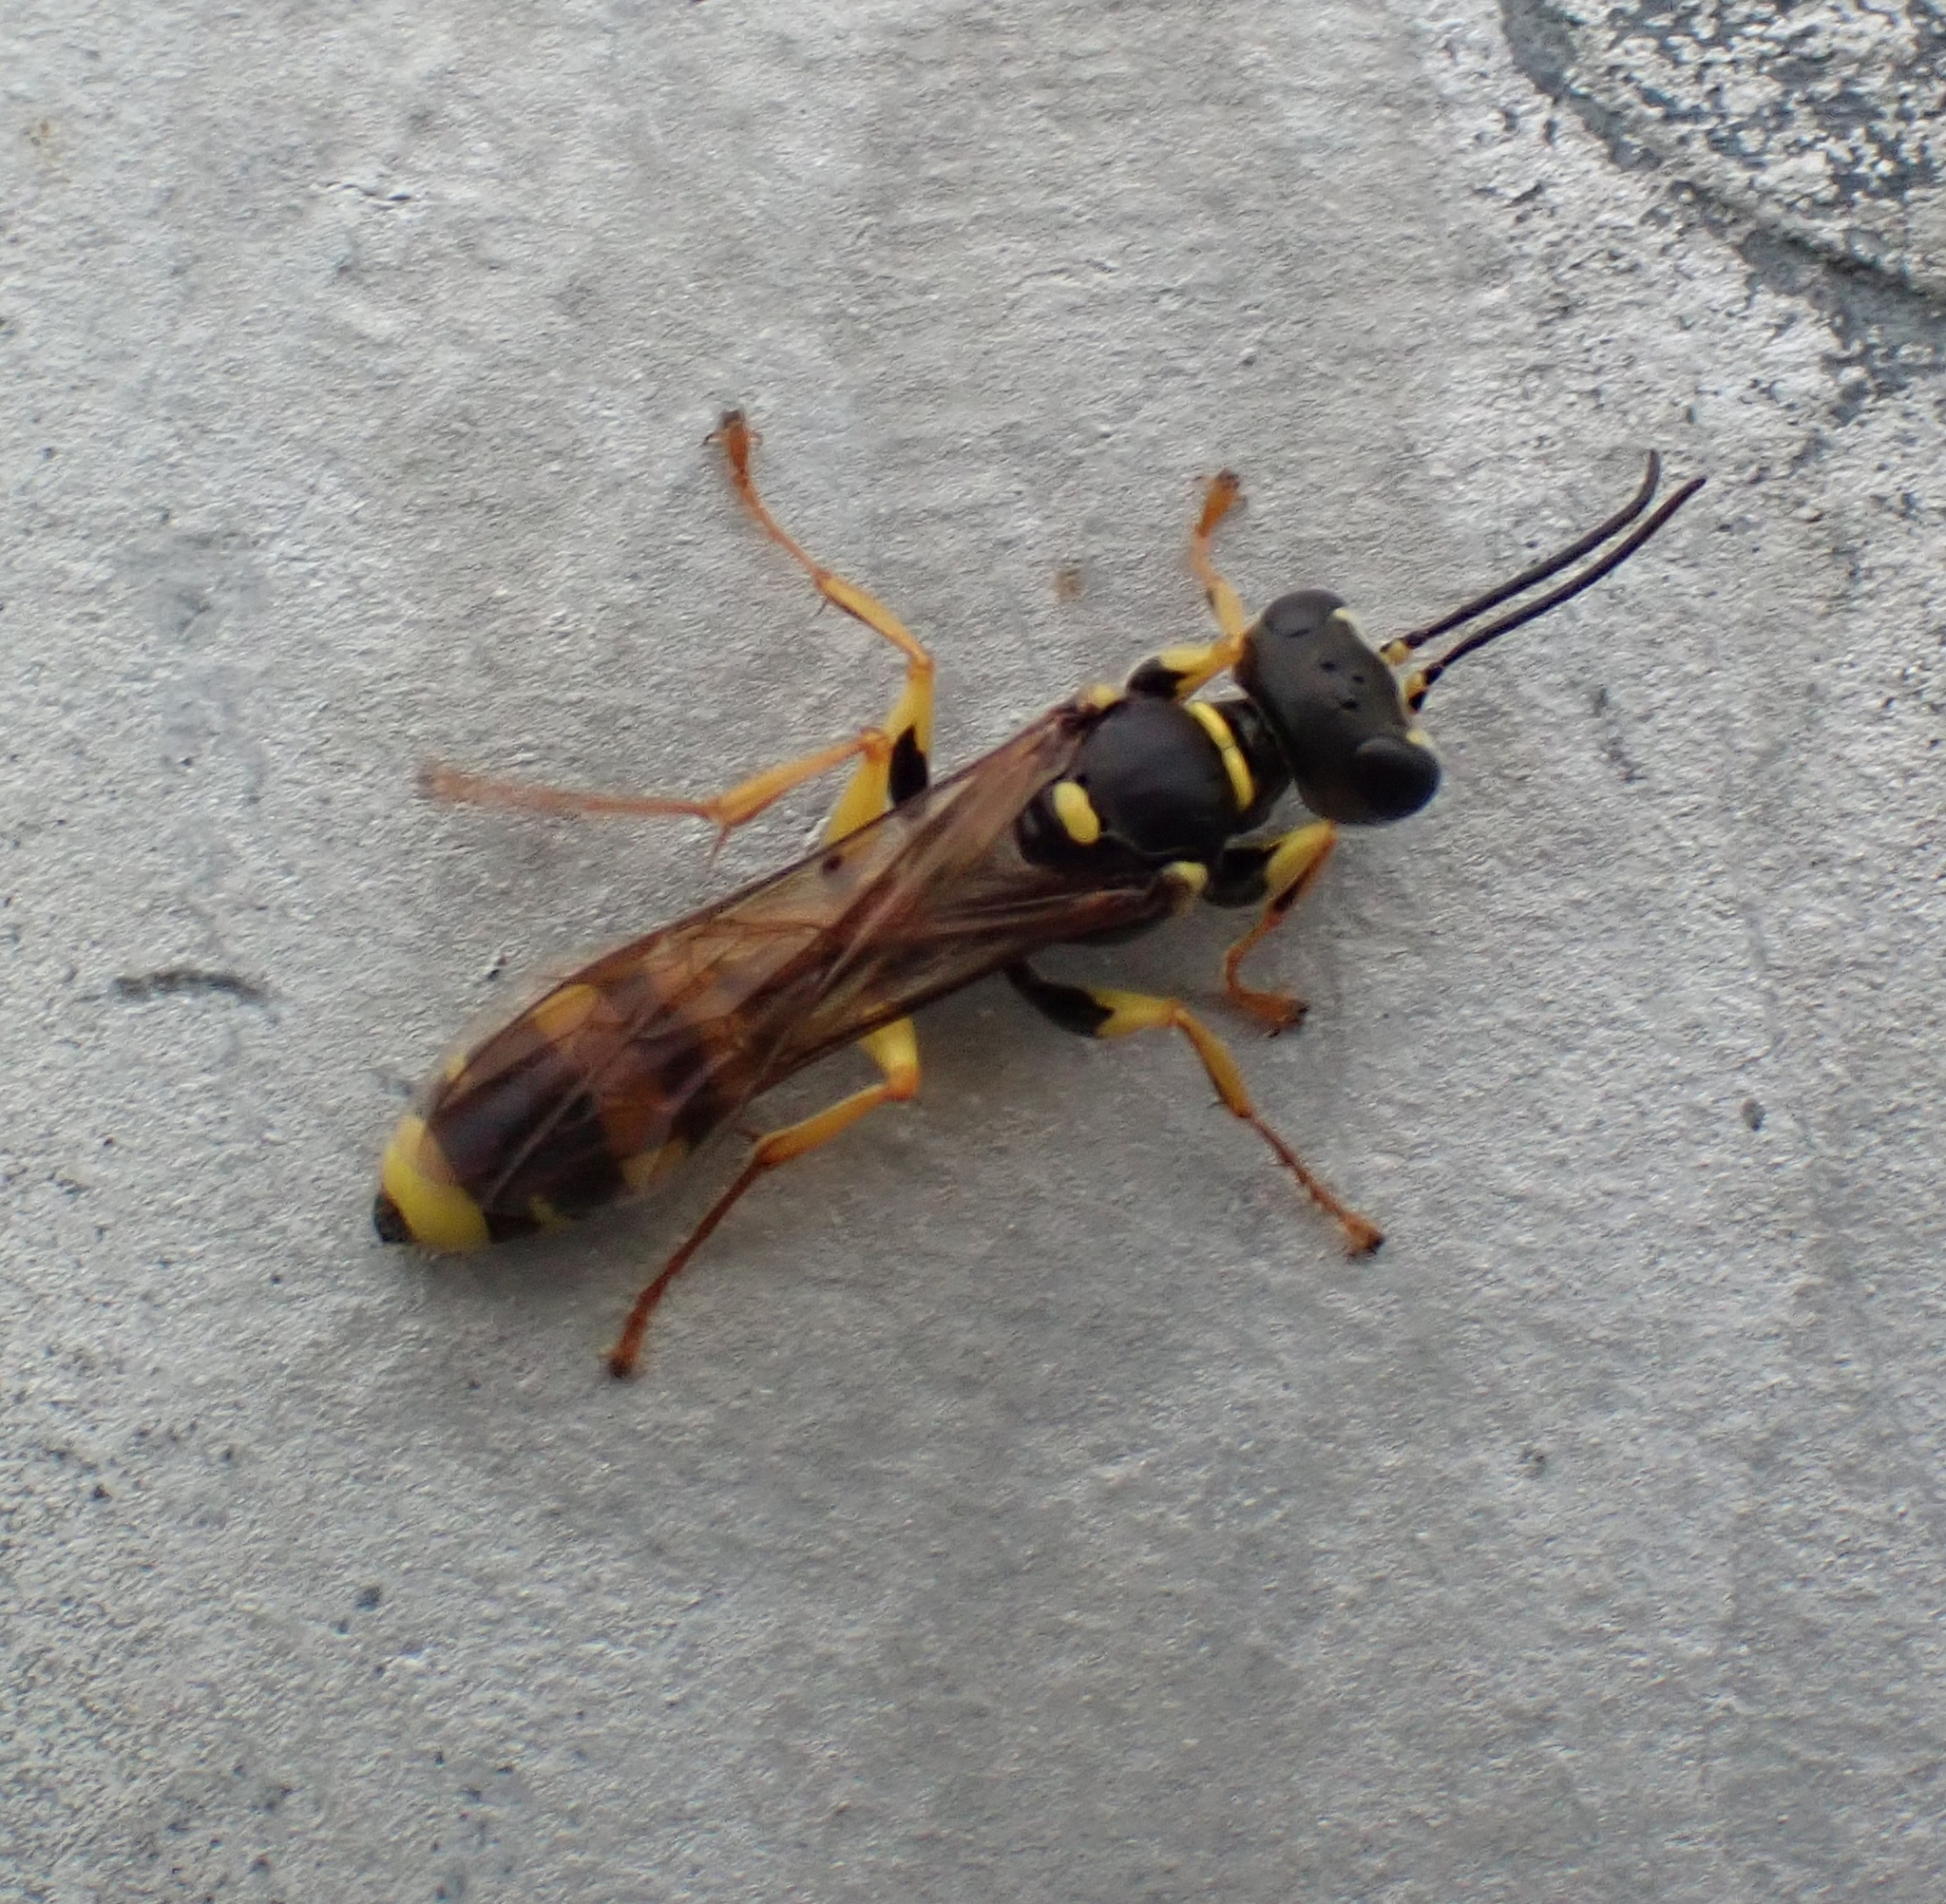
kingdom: Animalia
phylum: Arthropoda
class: Insecta
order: Hymenoptera
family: Crabronidae
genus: Mellinus
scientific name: Mellinus arvensis
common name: Field digger wasp
